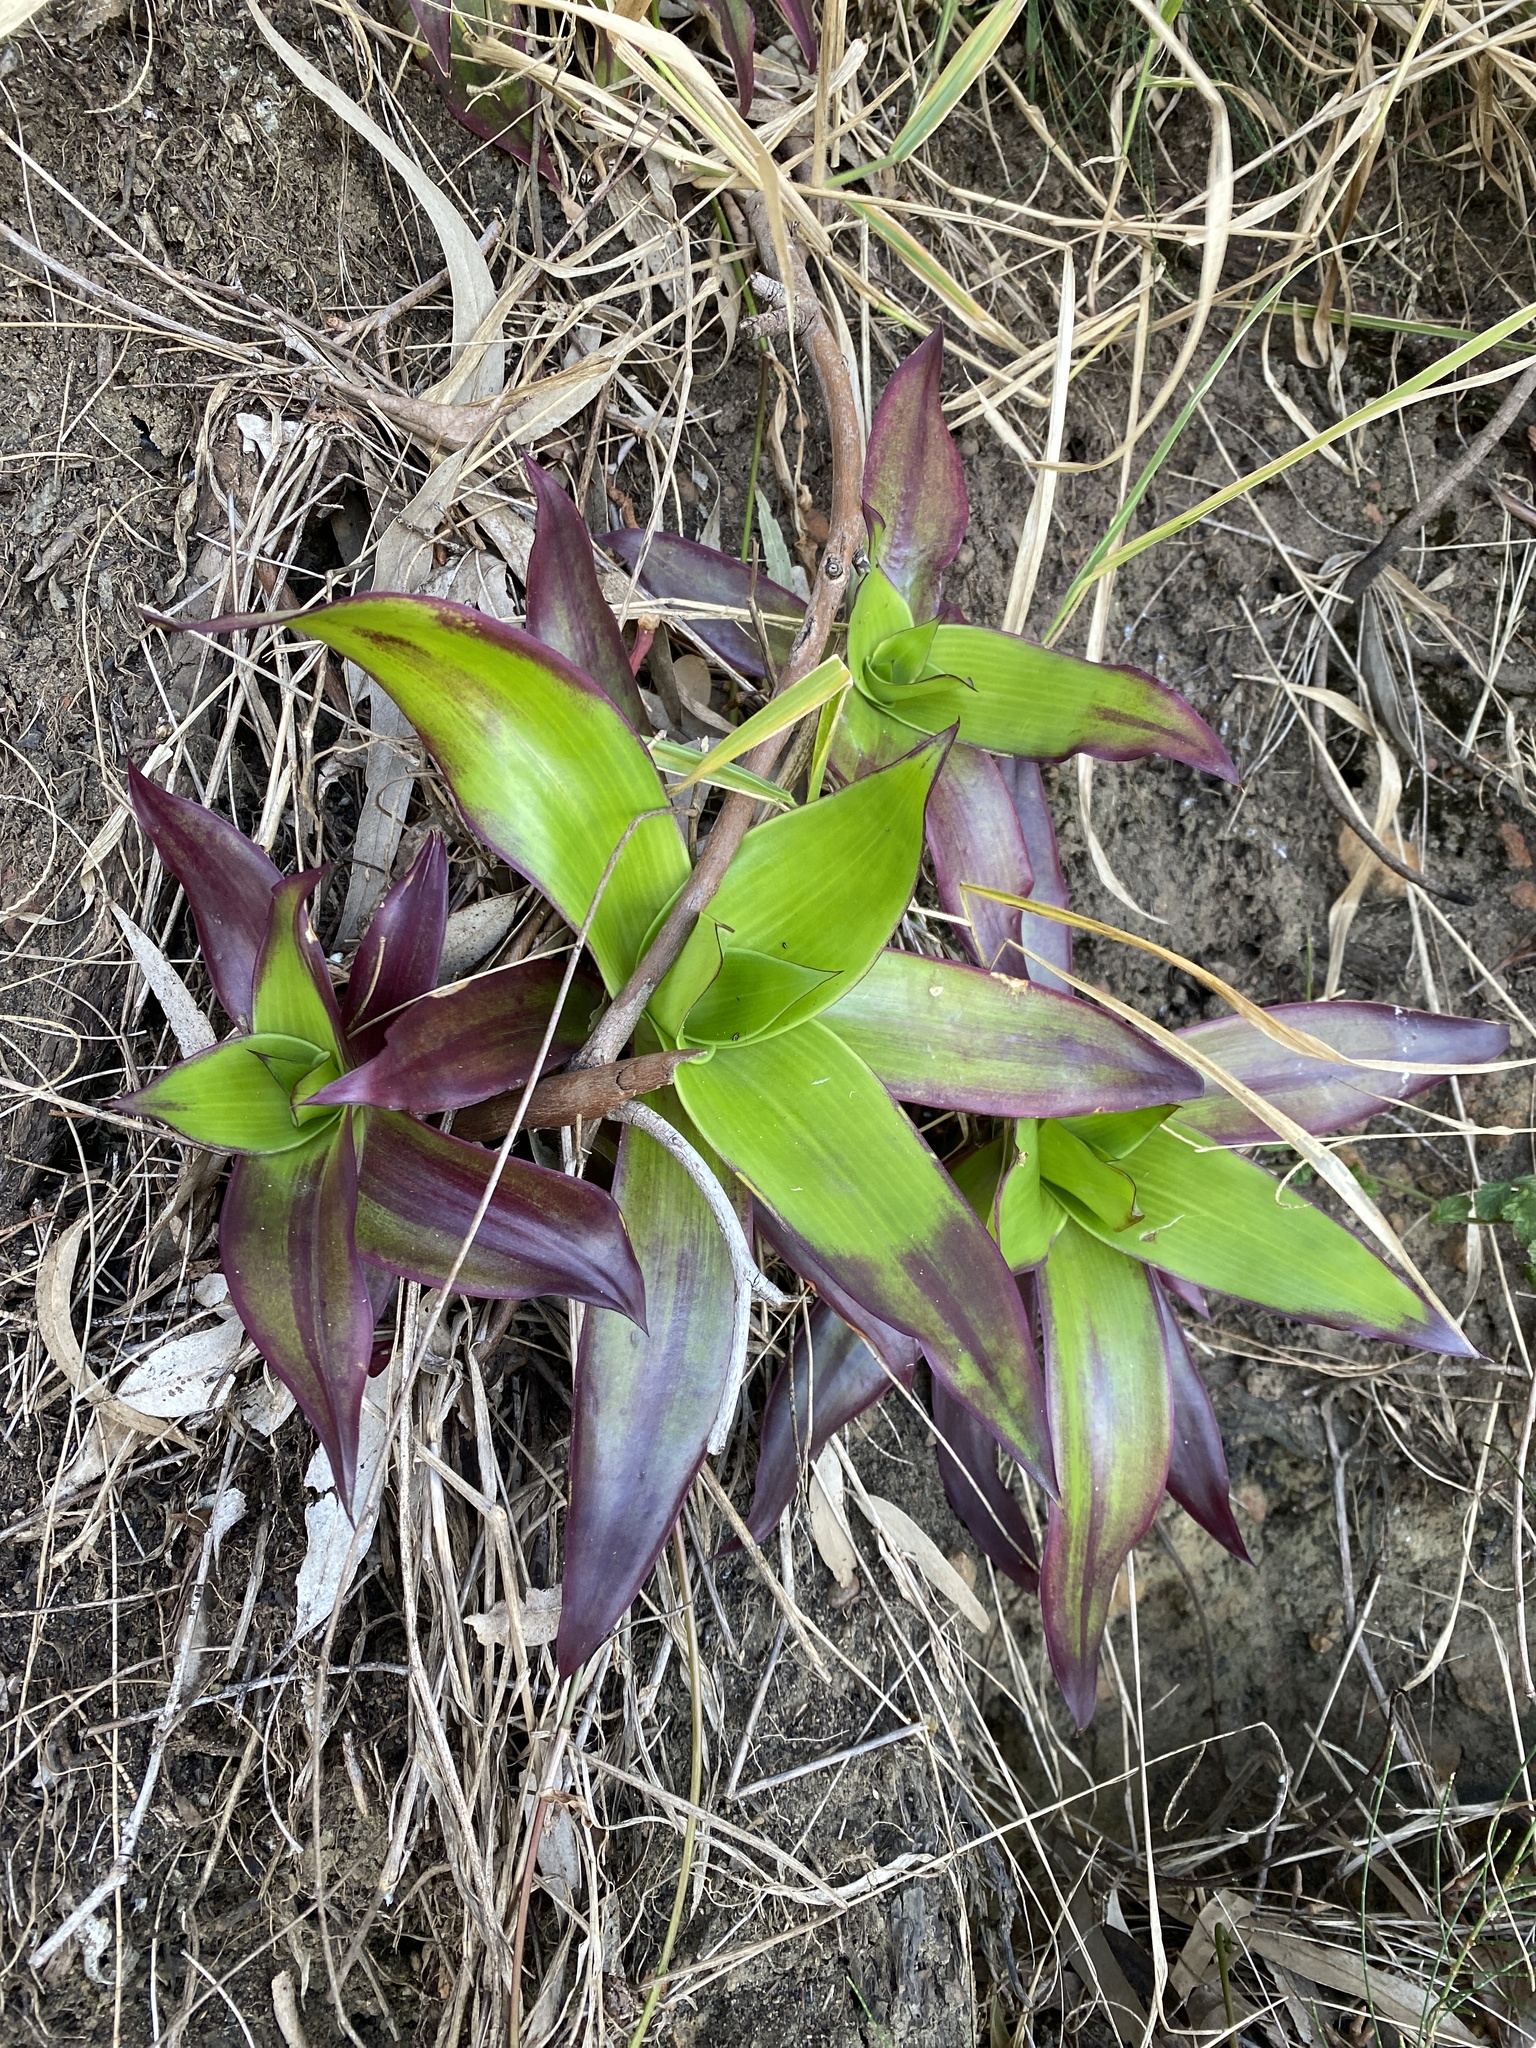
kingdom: Plantae
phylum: Tracheophyta
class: Liliopsida
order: Commelinales
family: Commelinaceae
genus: Callisia
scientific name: Callisia fragrans
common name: Basketplant
